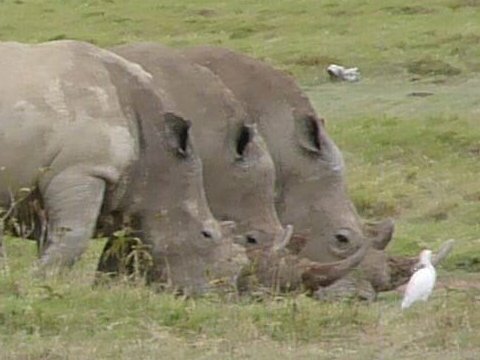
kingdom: Animalia
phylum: Chordata
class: Mammalia
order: Perissodactyla
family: Rhinocerotidae
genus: Ceratotherium
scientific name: Ceratotherium simum
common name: White rhinoceros
